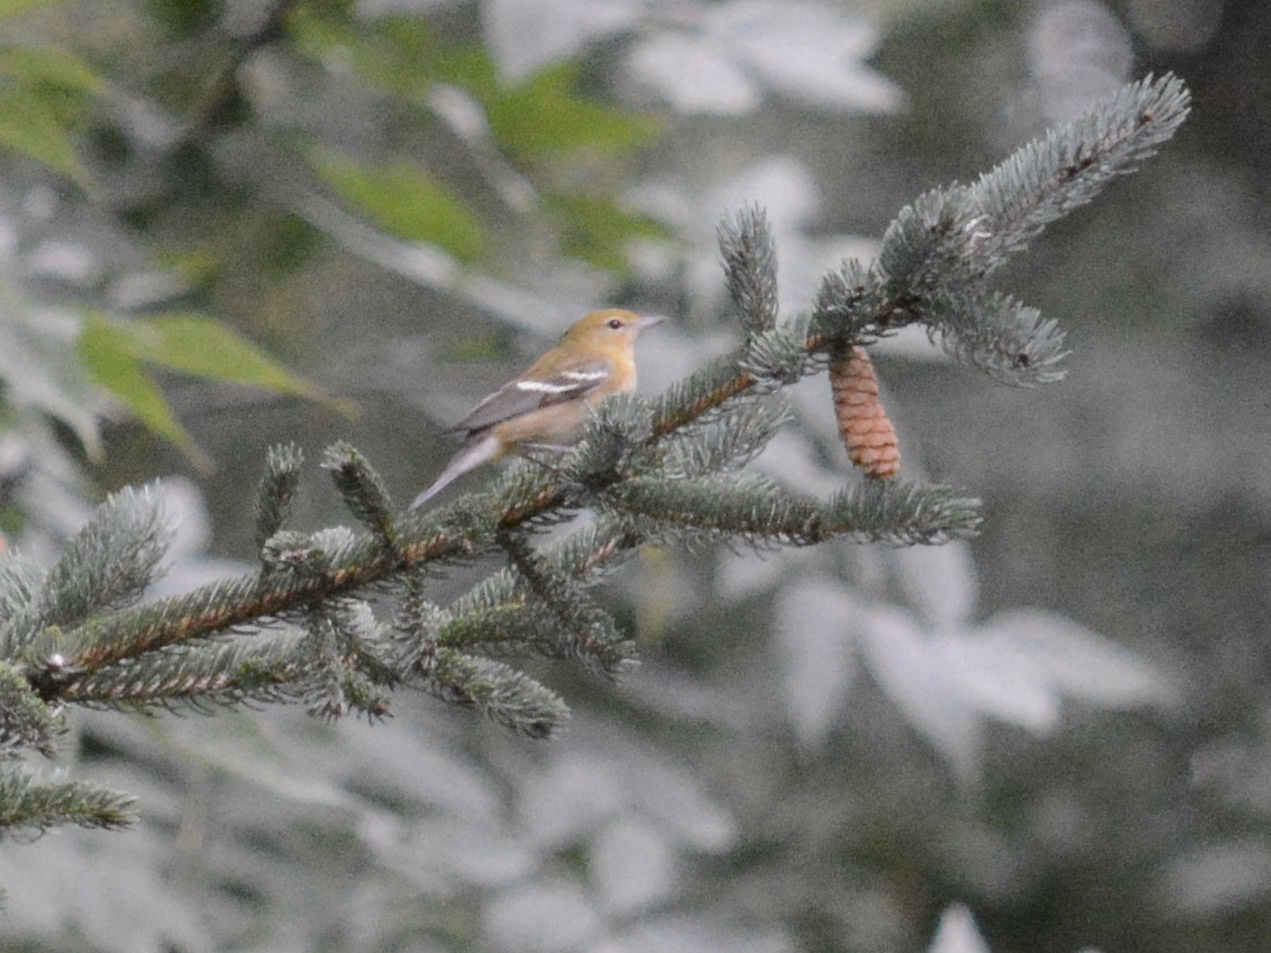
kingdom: Animalia
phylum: Chordata
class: Aves
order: Passeriformes
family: Parulidae
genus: Setophaga
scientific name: Setophaga castanea
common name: Bay-breasted warbler
